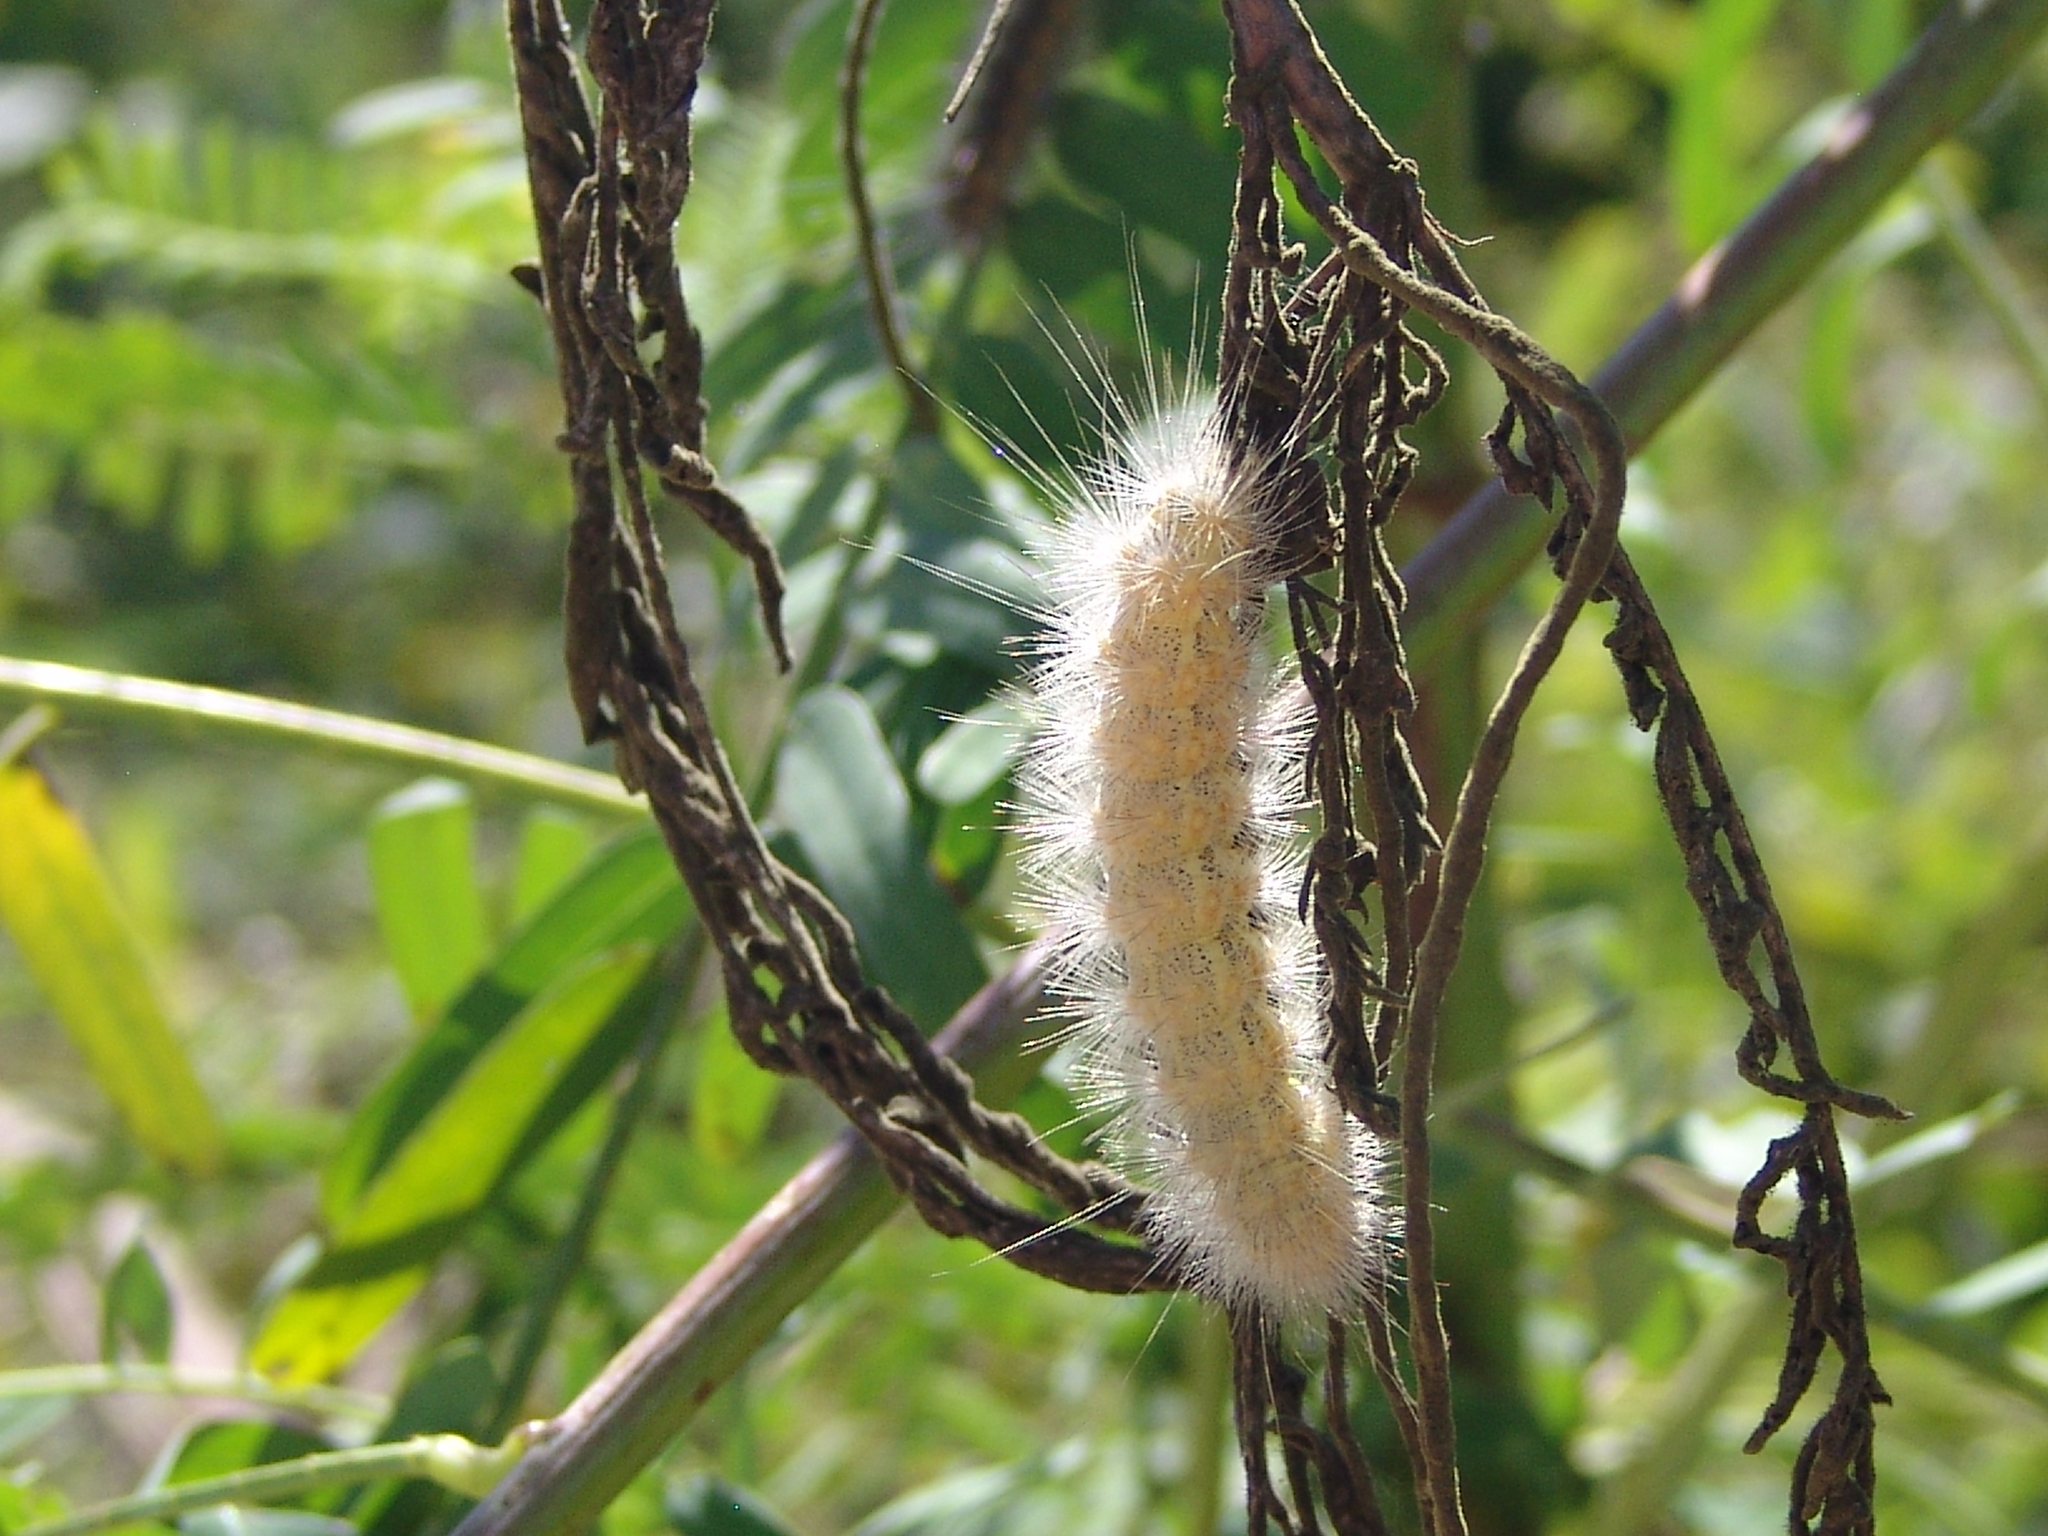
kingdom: Animalia
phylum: Arthropoda
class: Insecta
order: Lepidoptera
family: Erebidae
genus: Estigmene
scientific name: Estigmene acrea
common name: Salt marsh moth
